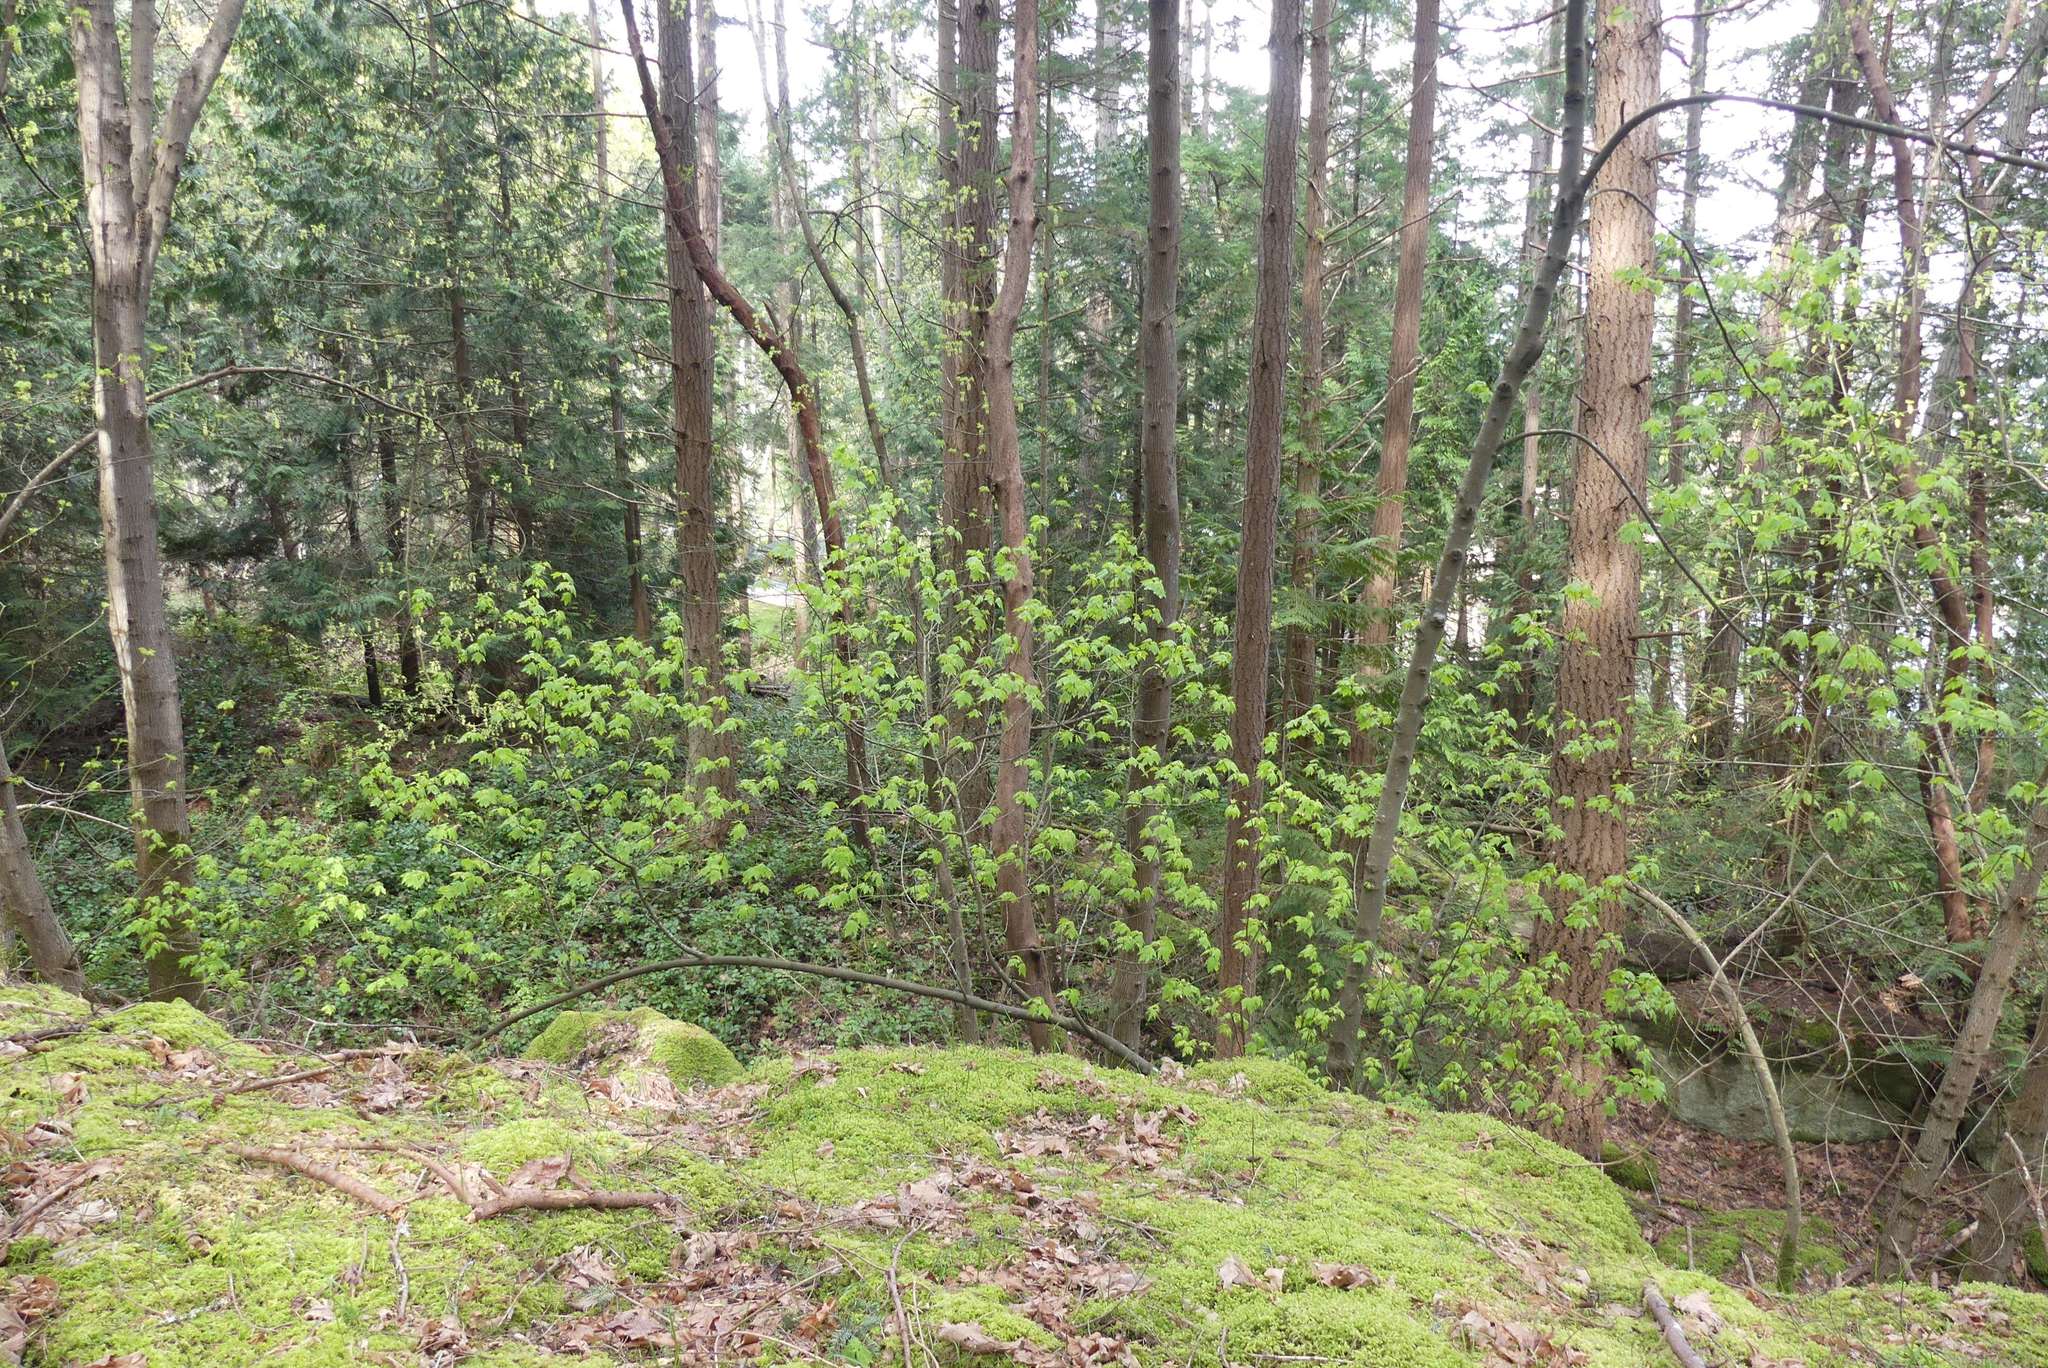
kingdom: Plantae
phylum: Tracheophyta
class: Magnoliopsida
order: Sapindales
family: Sapindaceae
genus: Acer
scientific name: Acer glabrum
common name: Rocky mountain maple
